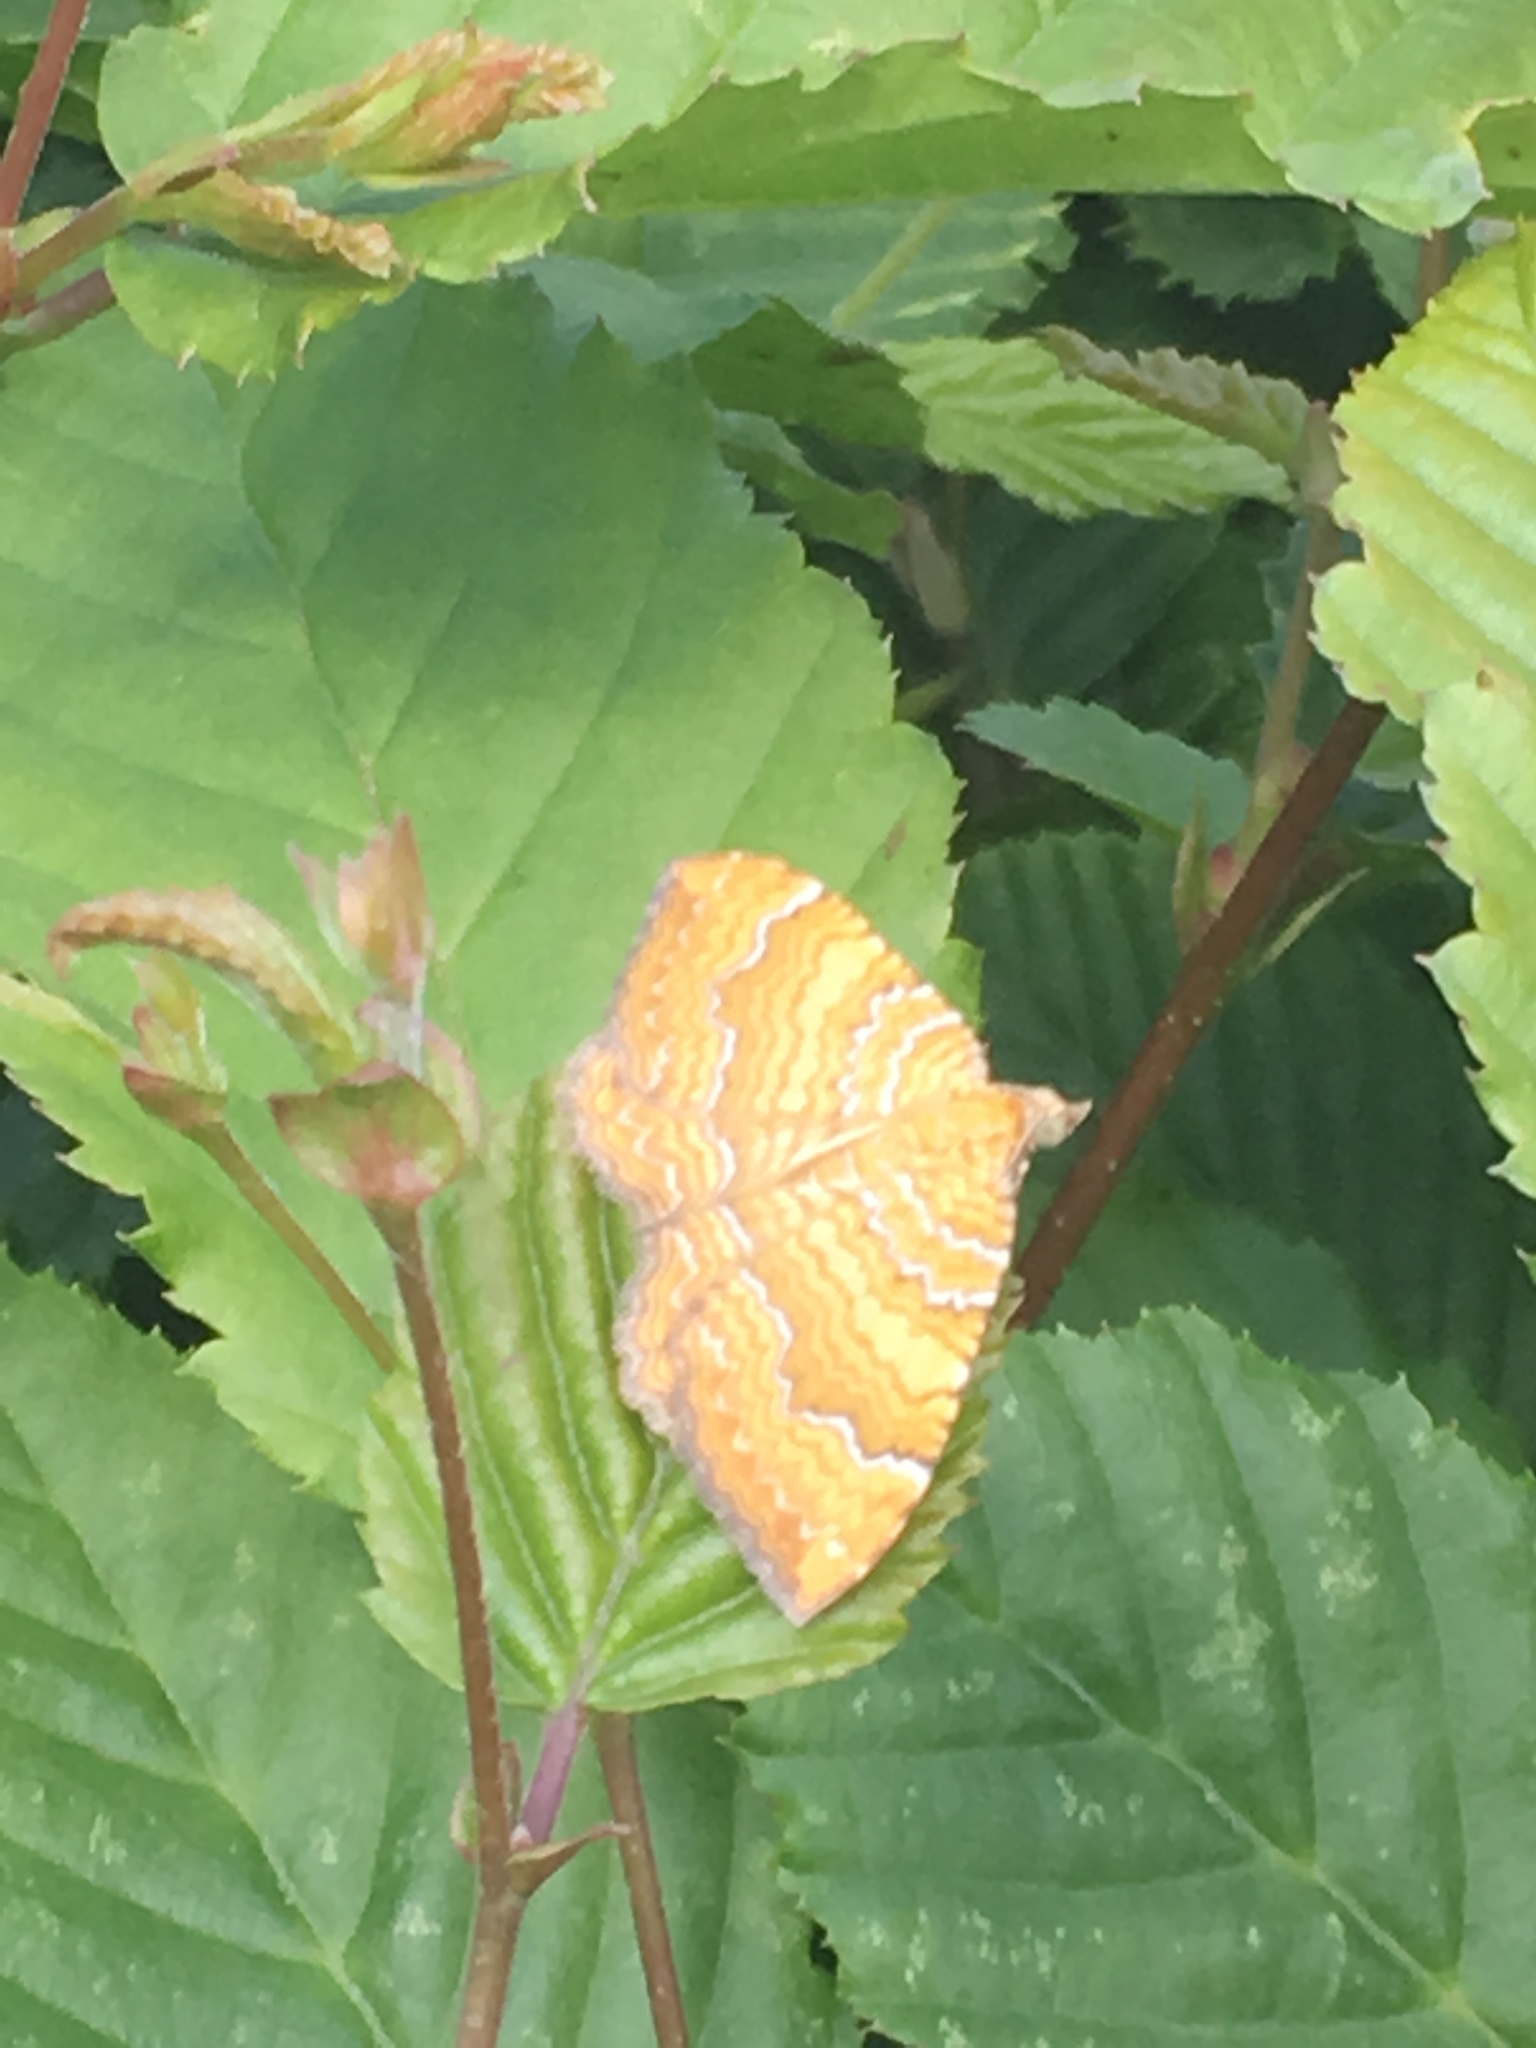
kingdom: Animalia
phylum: Arthropoda
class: Insecta
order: Lepidoptera
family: Geometridae
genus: Camptogramma
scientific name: Camptogramma bilineata
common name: Yellow shell
